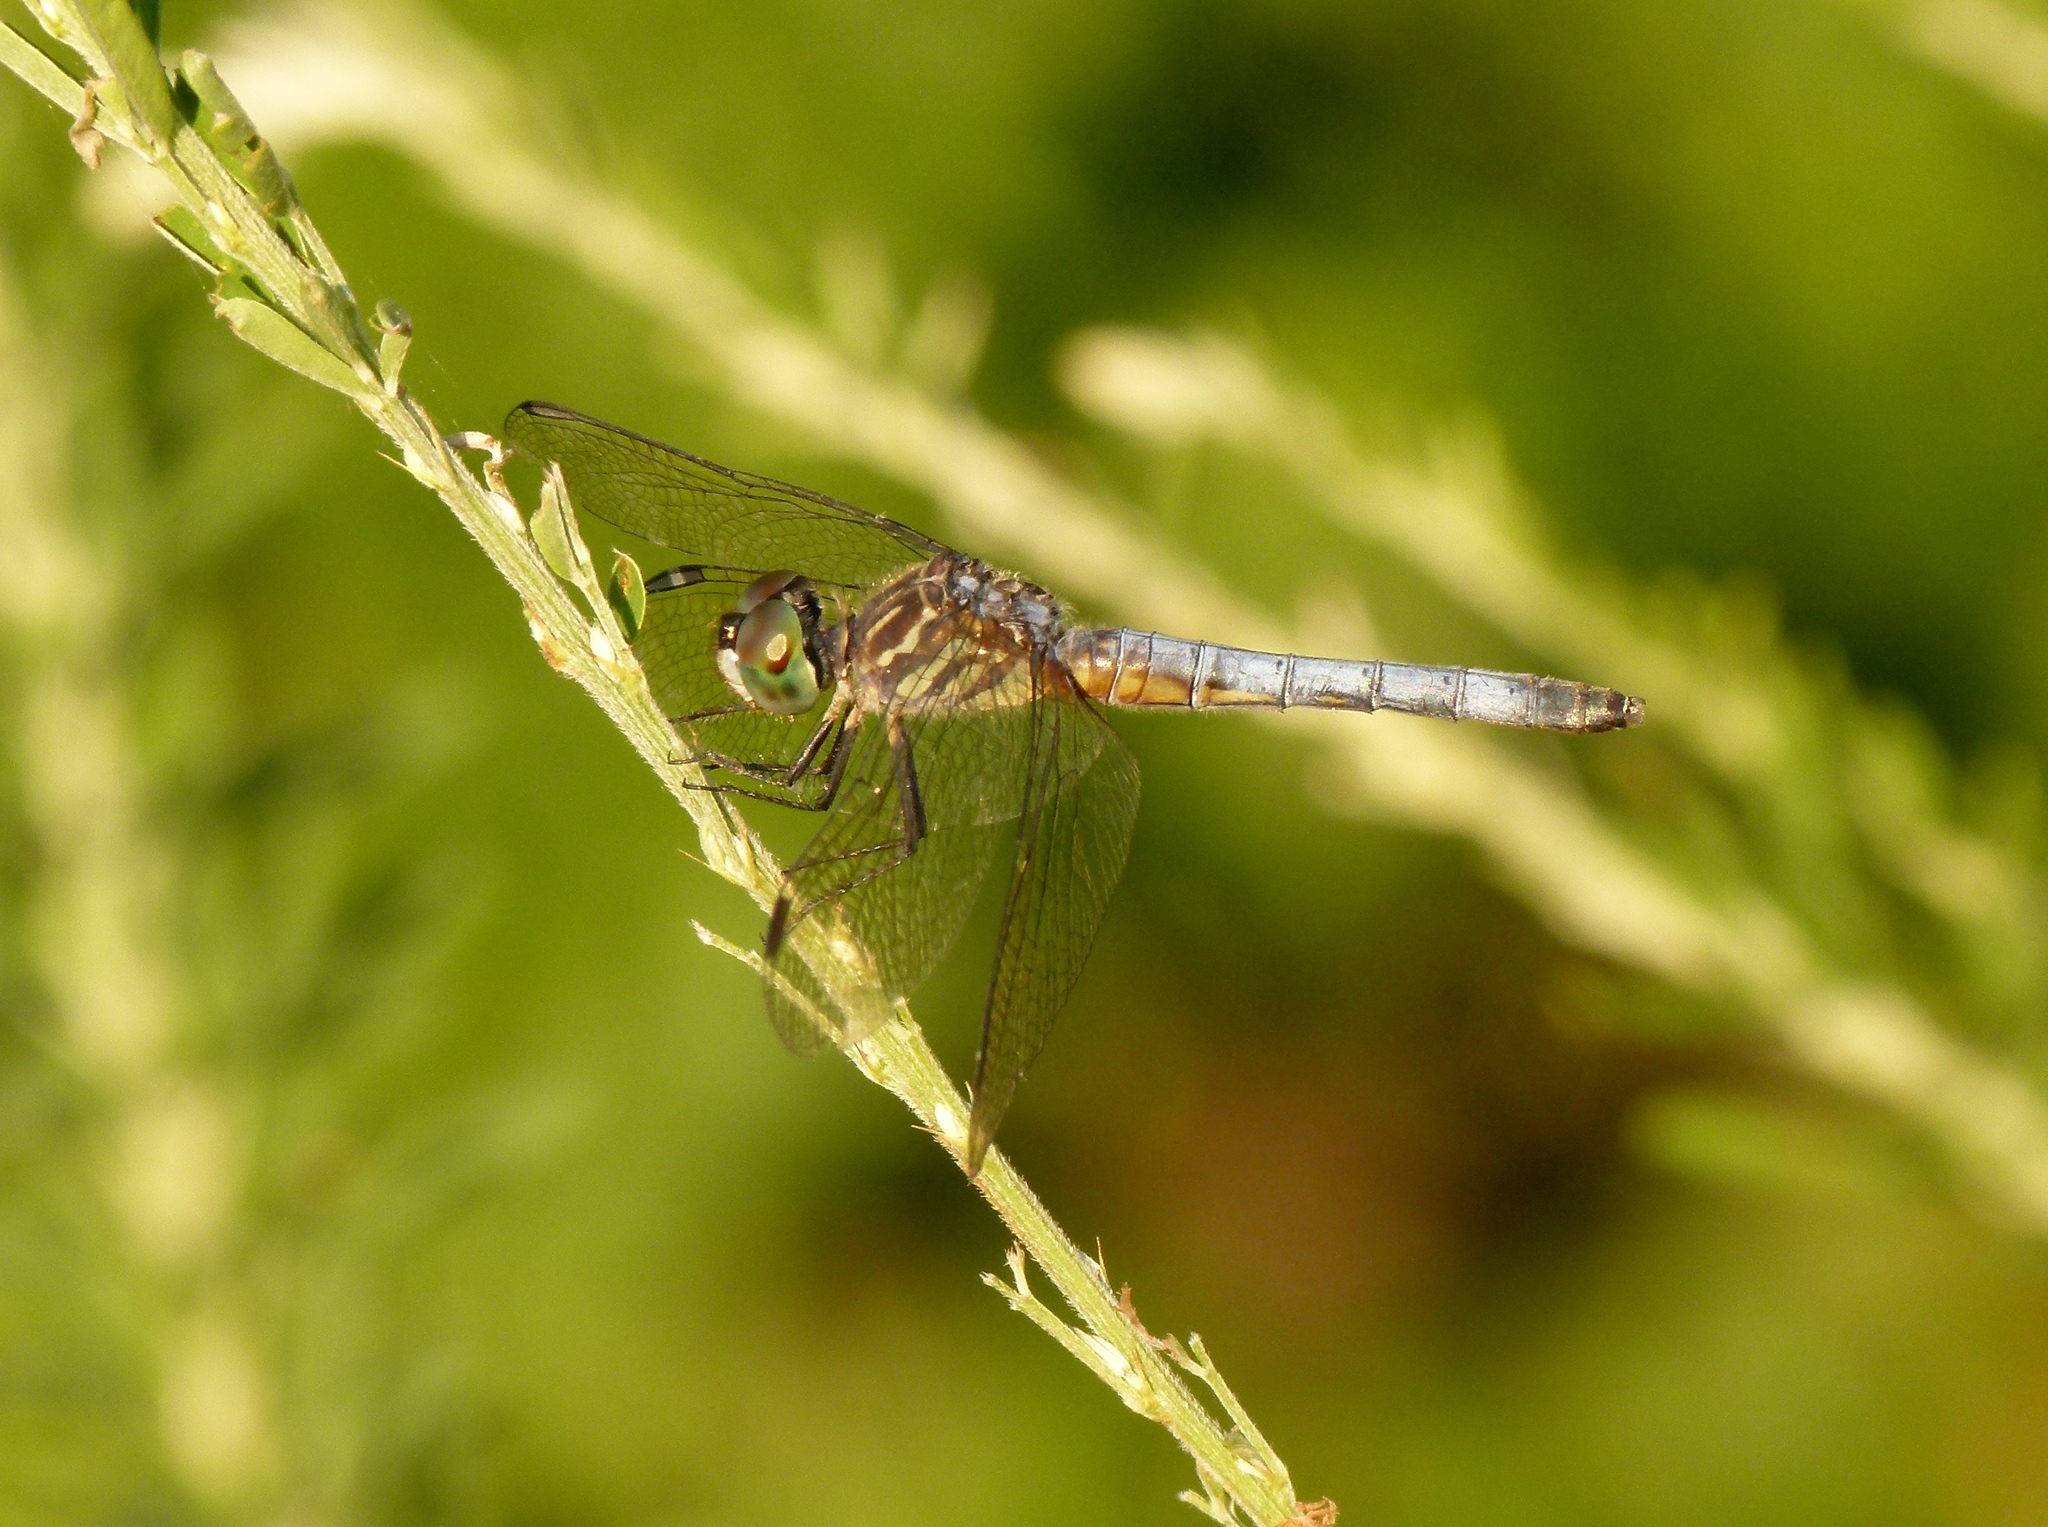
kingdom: Animalia
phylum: Arthropoda
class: Insecta
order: Odonata
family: Libellulidae
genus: Pachydiplax
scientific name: Pachydiplax longipennis
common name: Blue dasher
